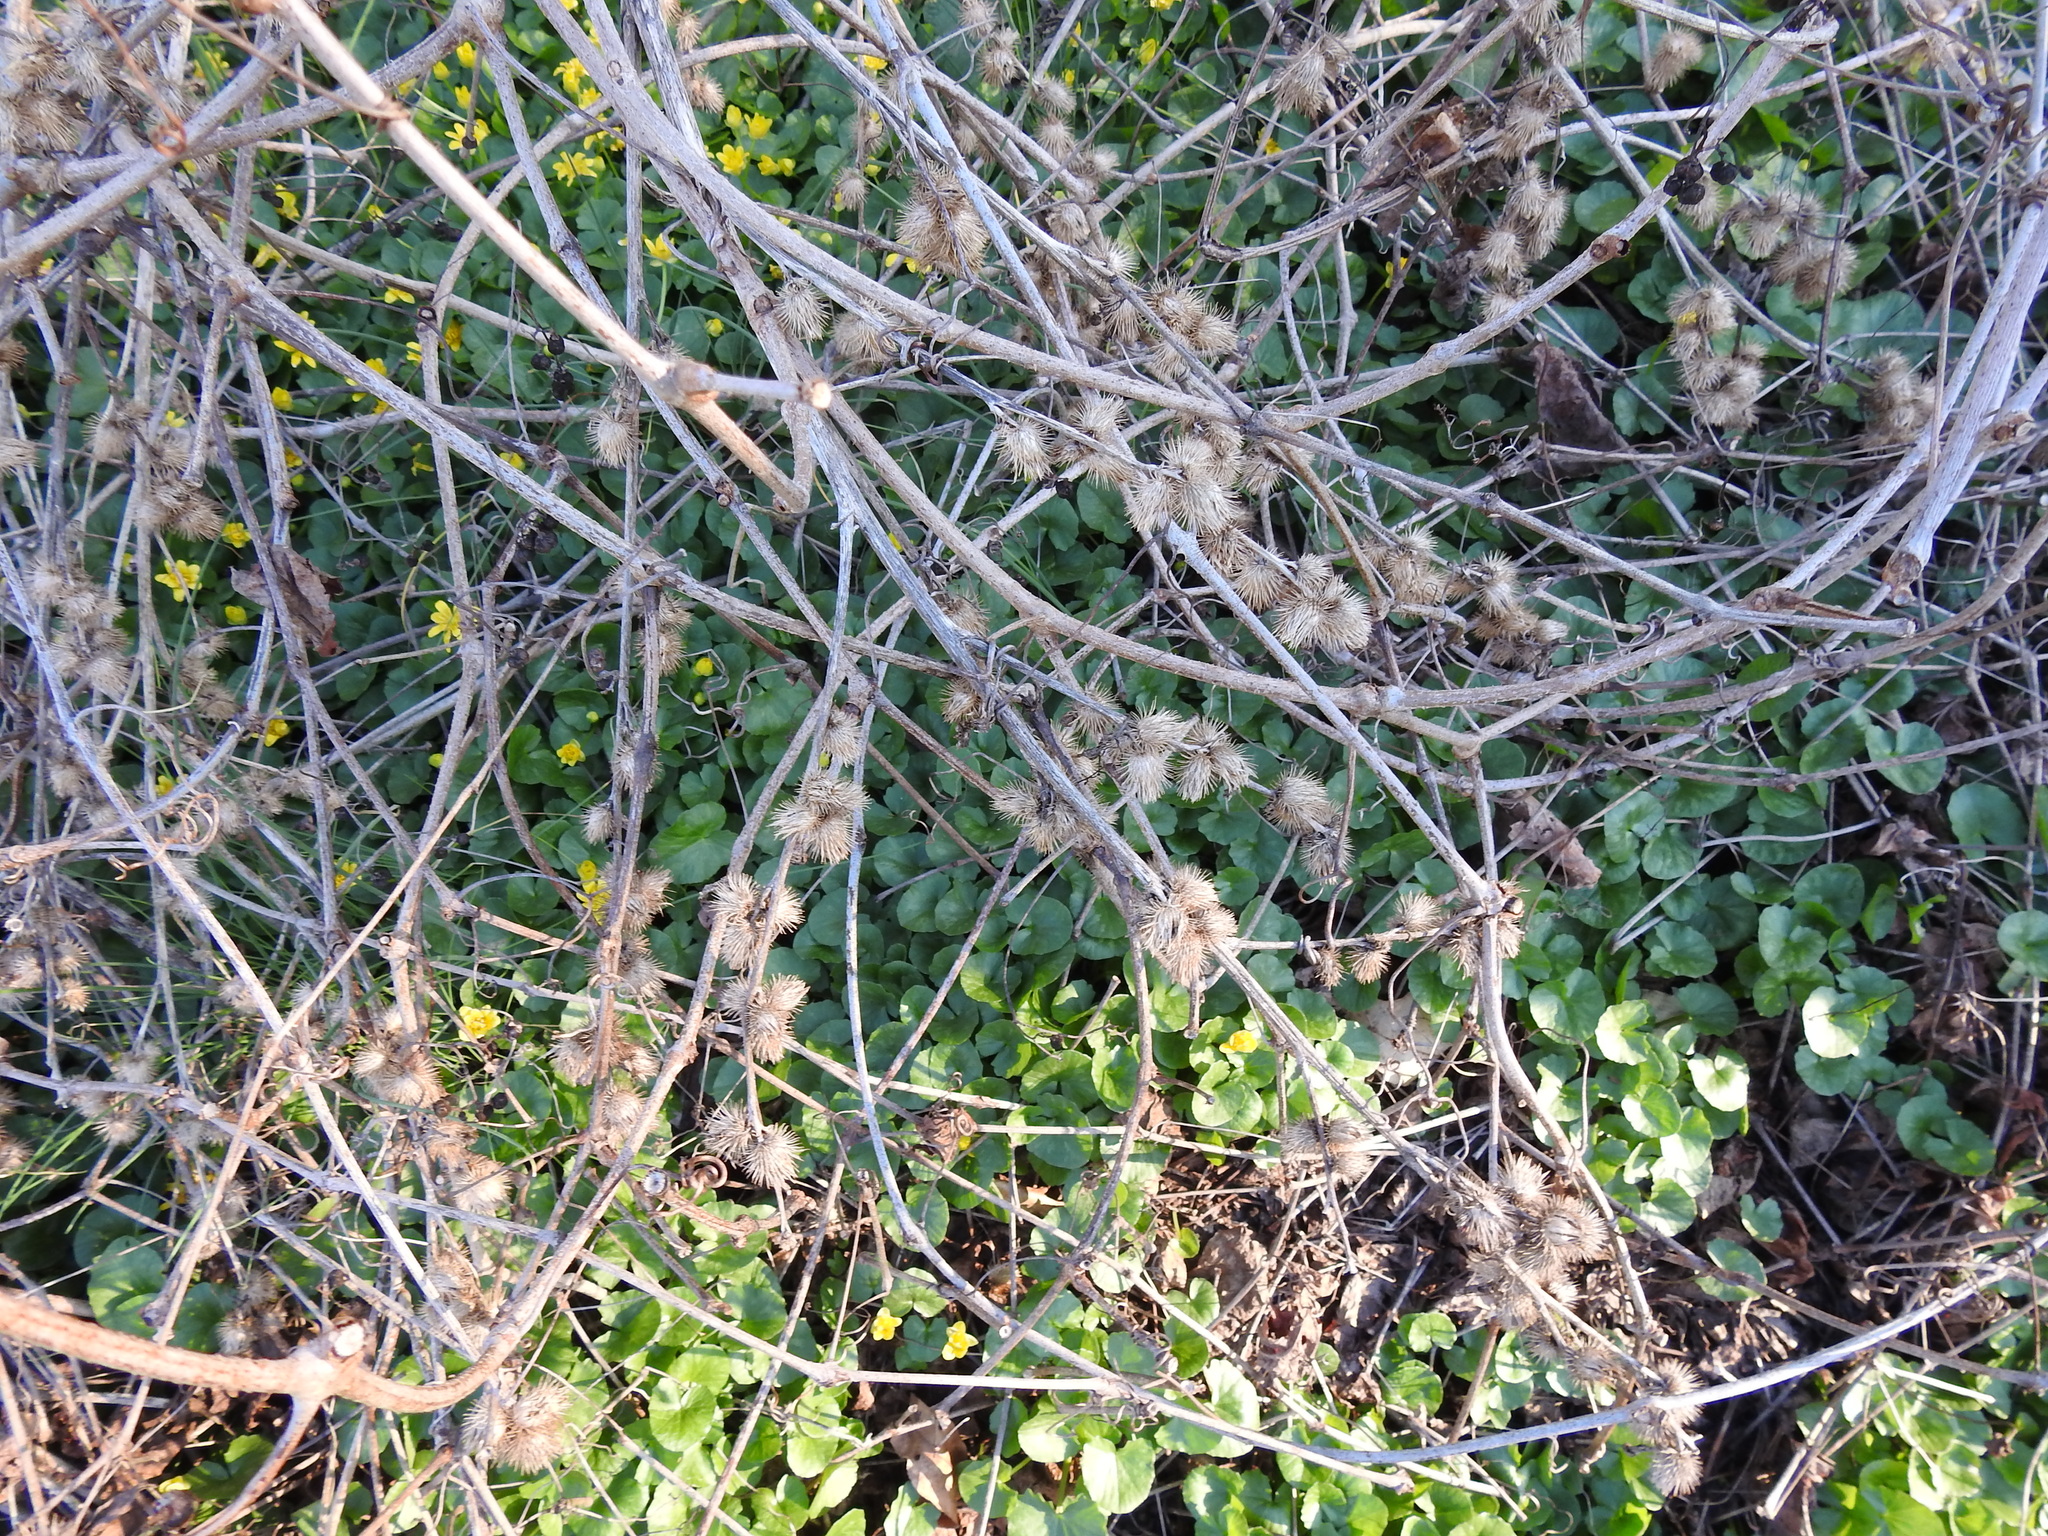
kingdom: Plantae
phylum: Tracheophyta
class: Magnoliopsida
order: Asterales
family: Asteraceae
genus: Arctium
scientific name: Arctium minus
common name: Lesser burdock
